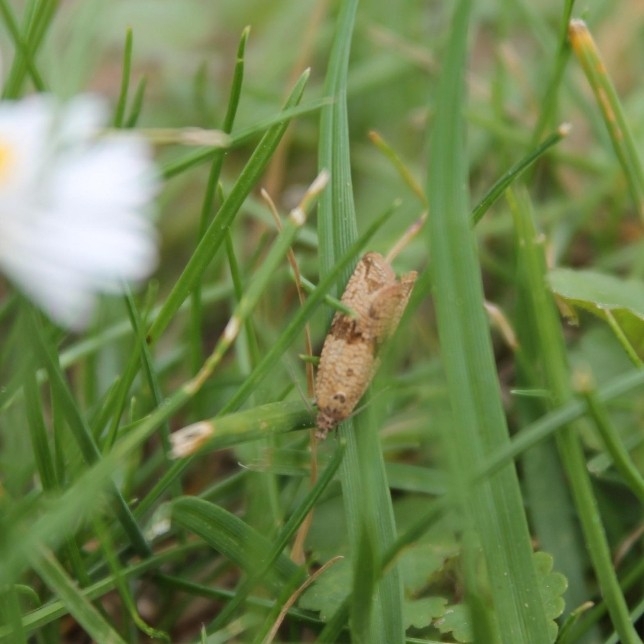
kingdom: Animalia
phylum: Arthropoda
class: Insecta
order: Lepidoptera
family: Tortricidae
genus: Celypha
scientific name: Celypha striana
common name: Barred marble
